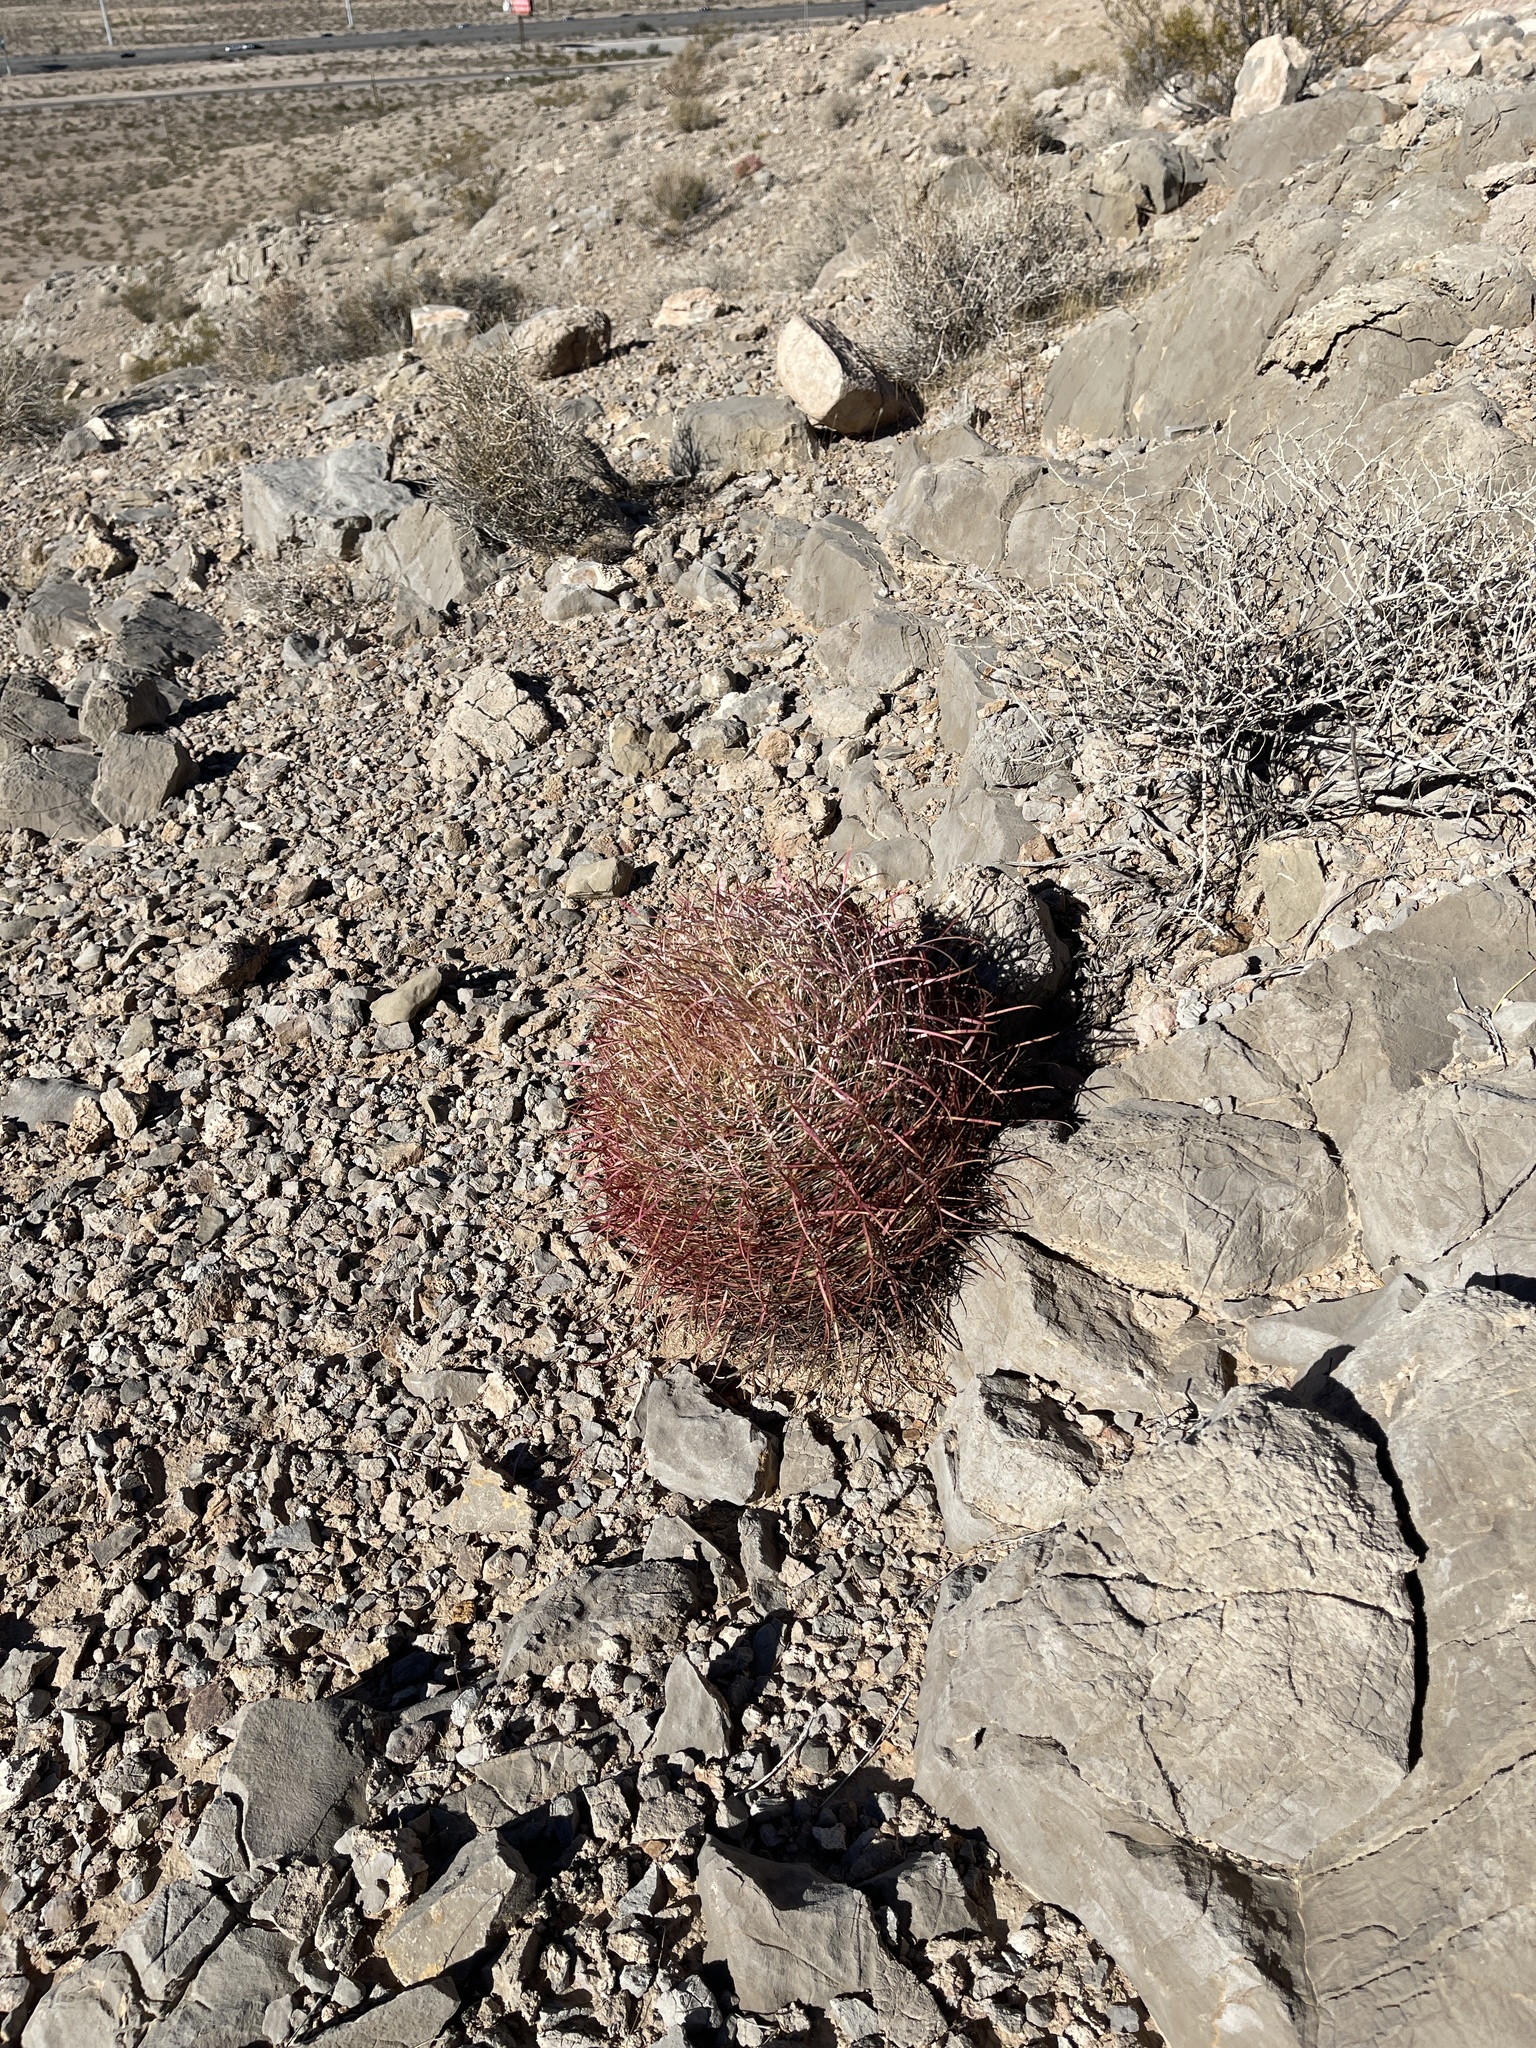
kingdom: Plantae
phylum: Tracheophyta
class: Magnoliopsida
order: Caryophyllales
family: Cactaceae
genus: Ferocactus
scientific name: Ferocactus cylindraceus
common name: California barrel cactus
